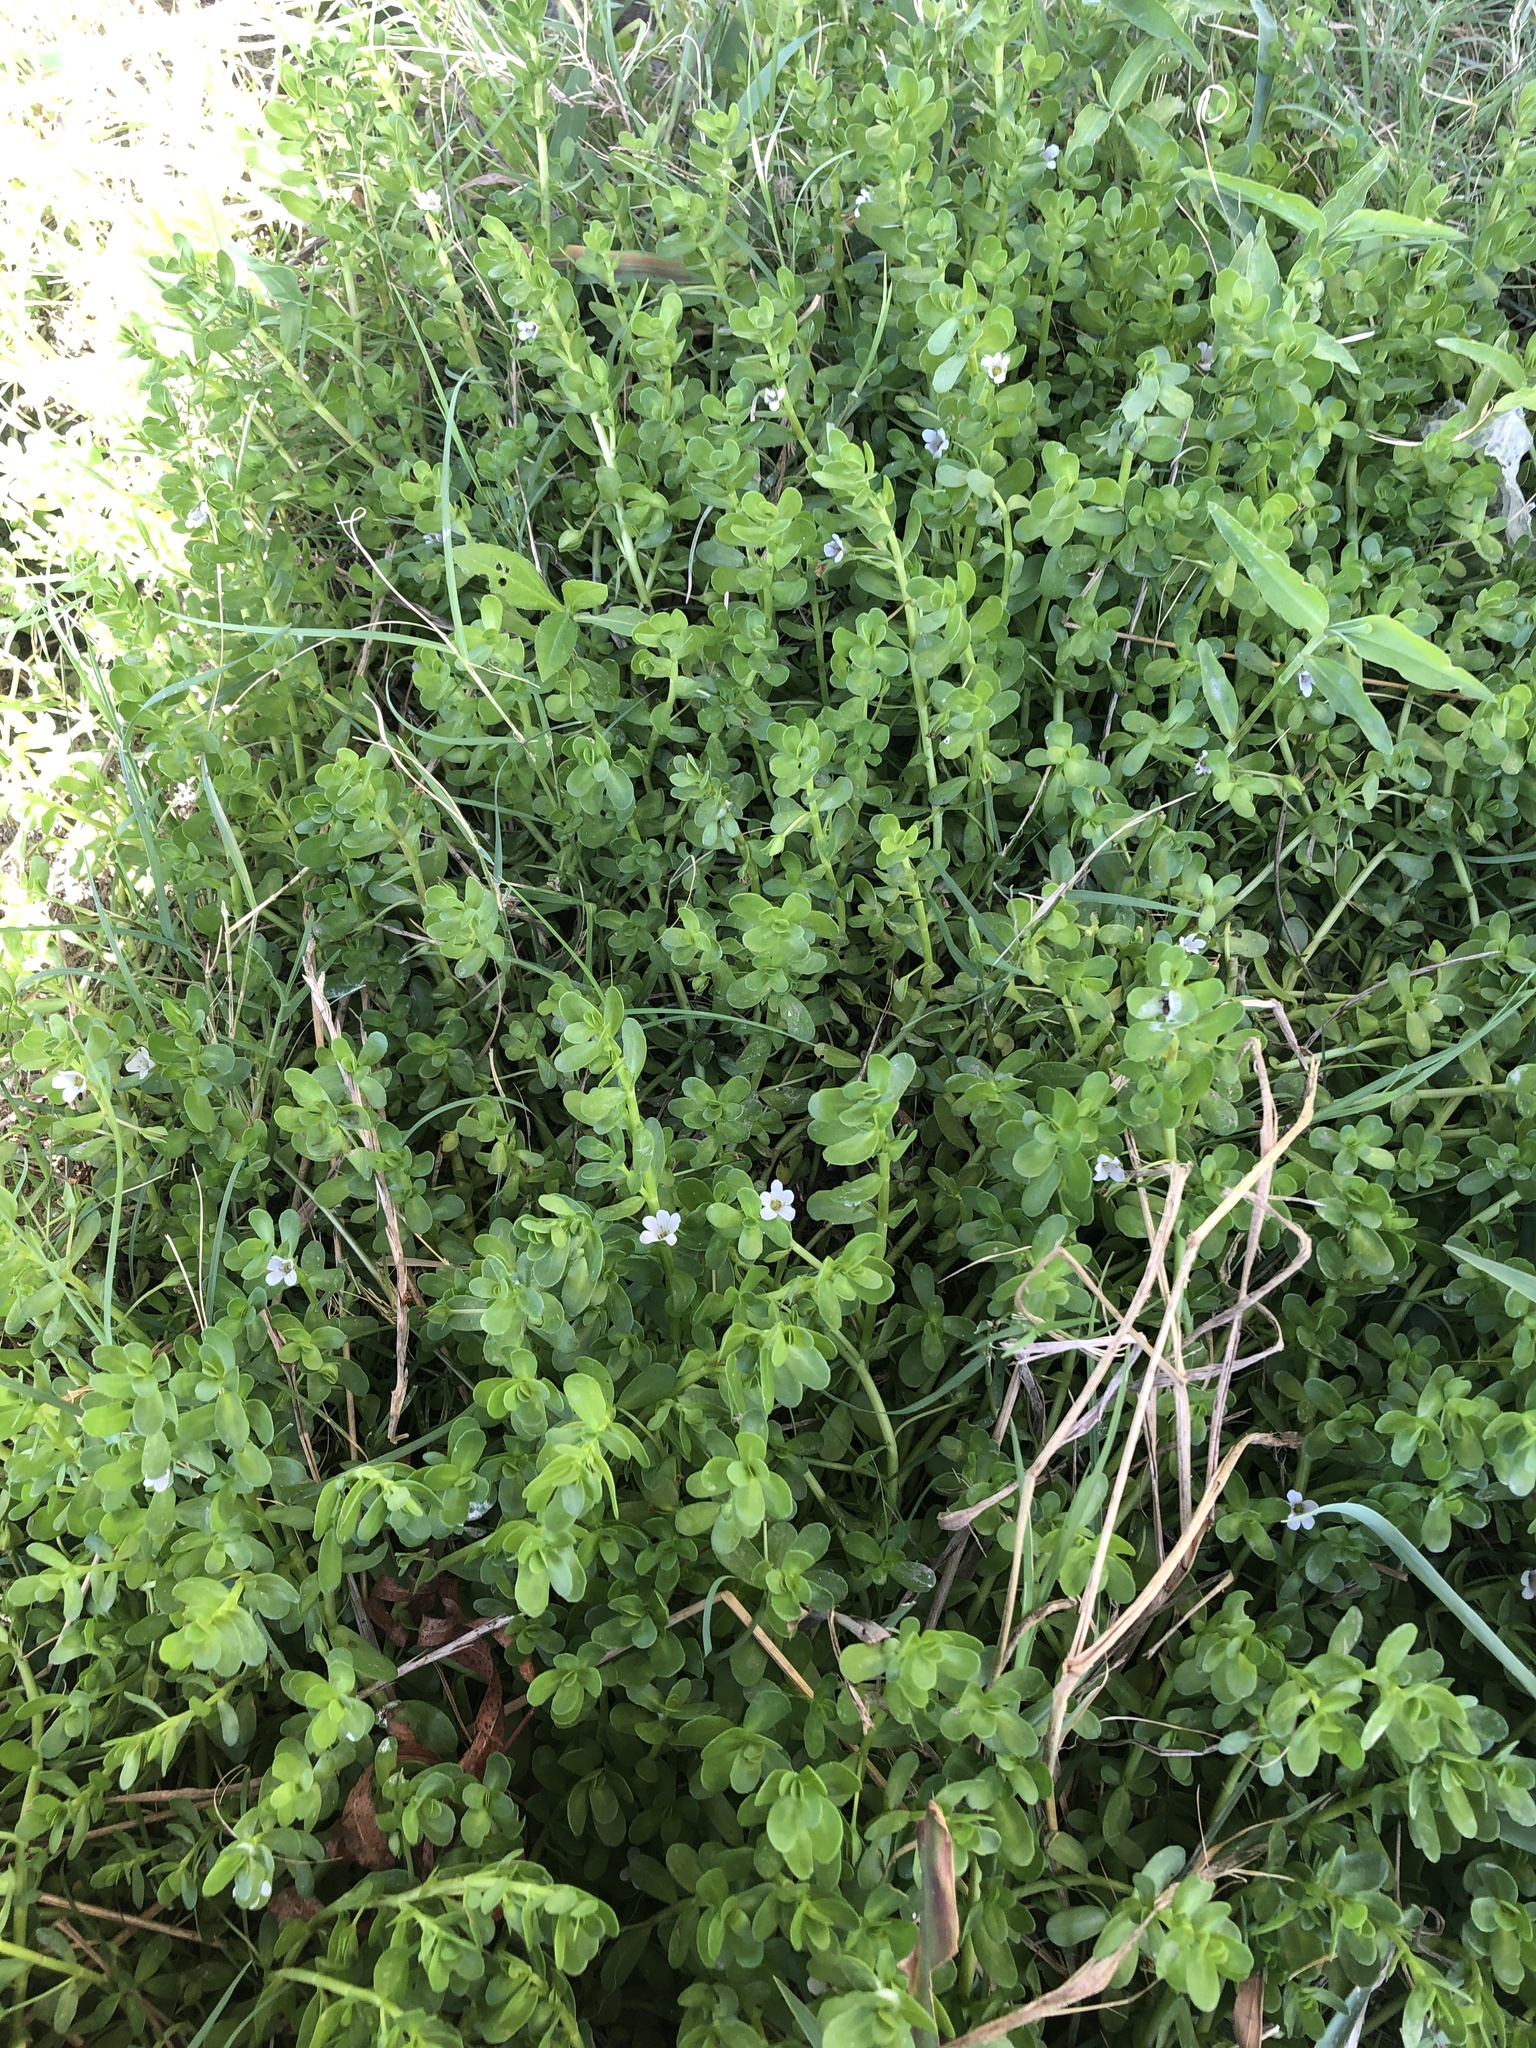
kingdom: Plantae
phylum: Tracheophyta
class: Magnoliopsida
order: Lamiales
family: Plantaginaceae
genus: Bacopa
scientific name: Bacopa monnieri
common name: Indian-pennywort
